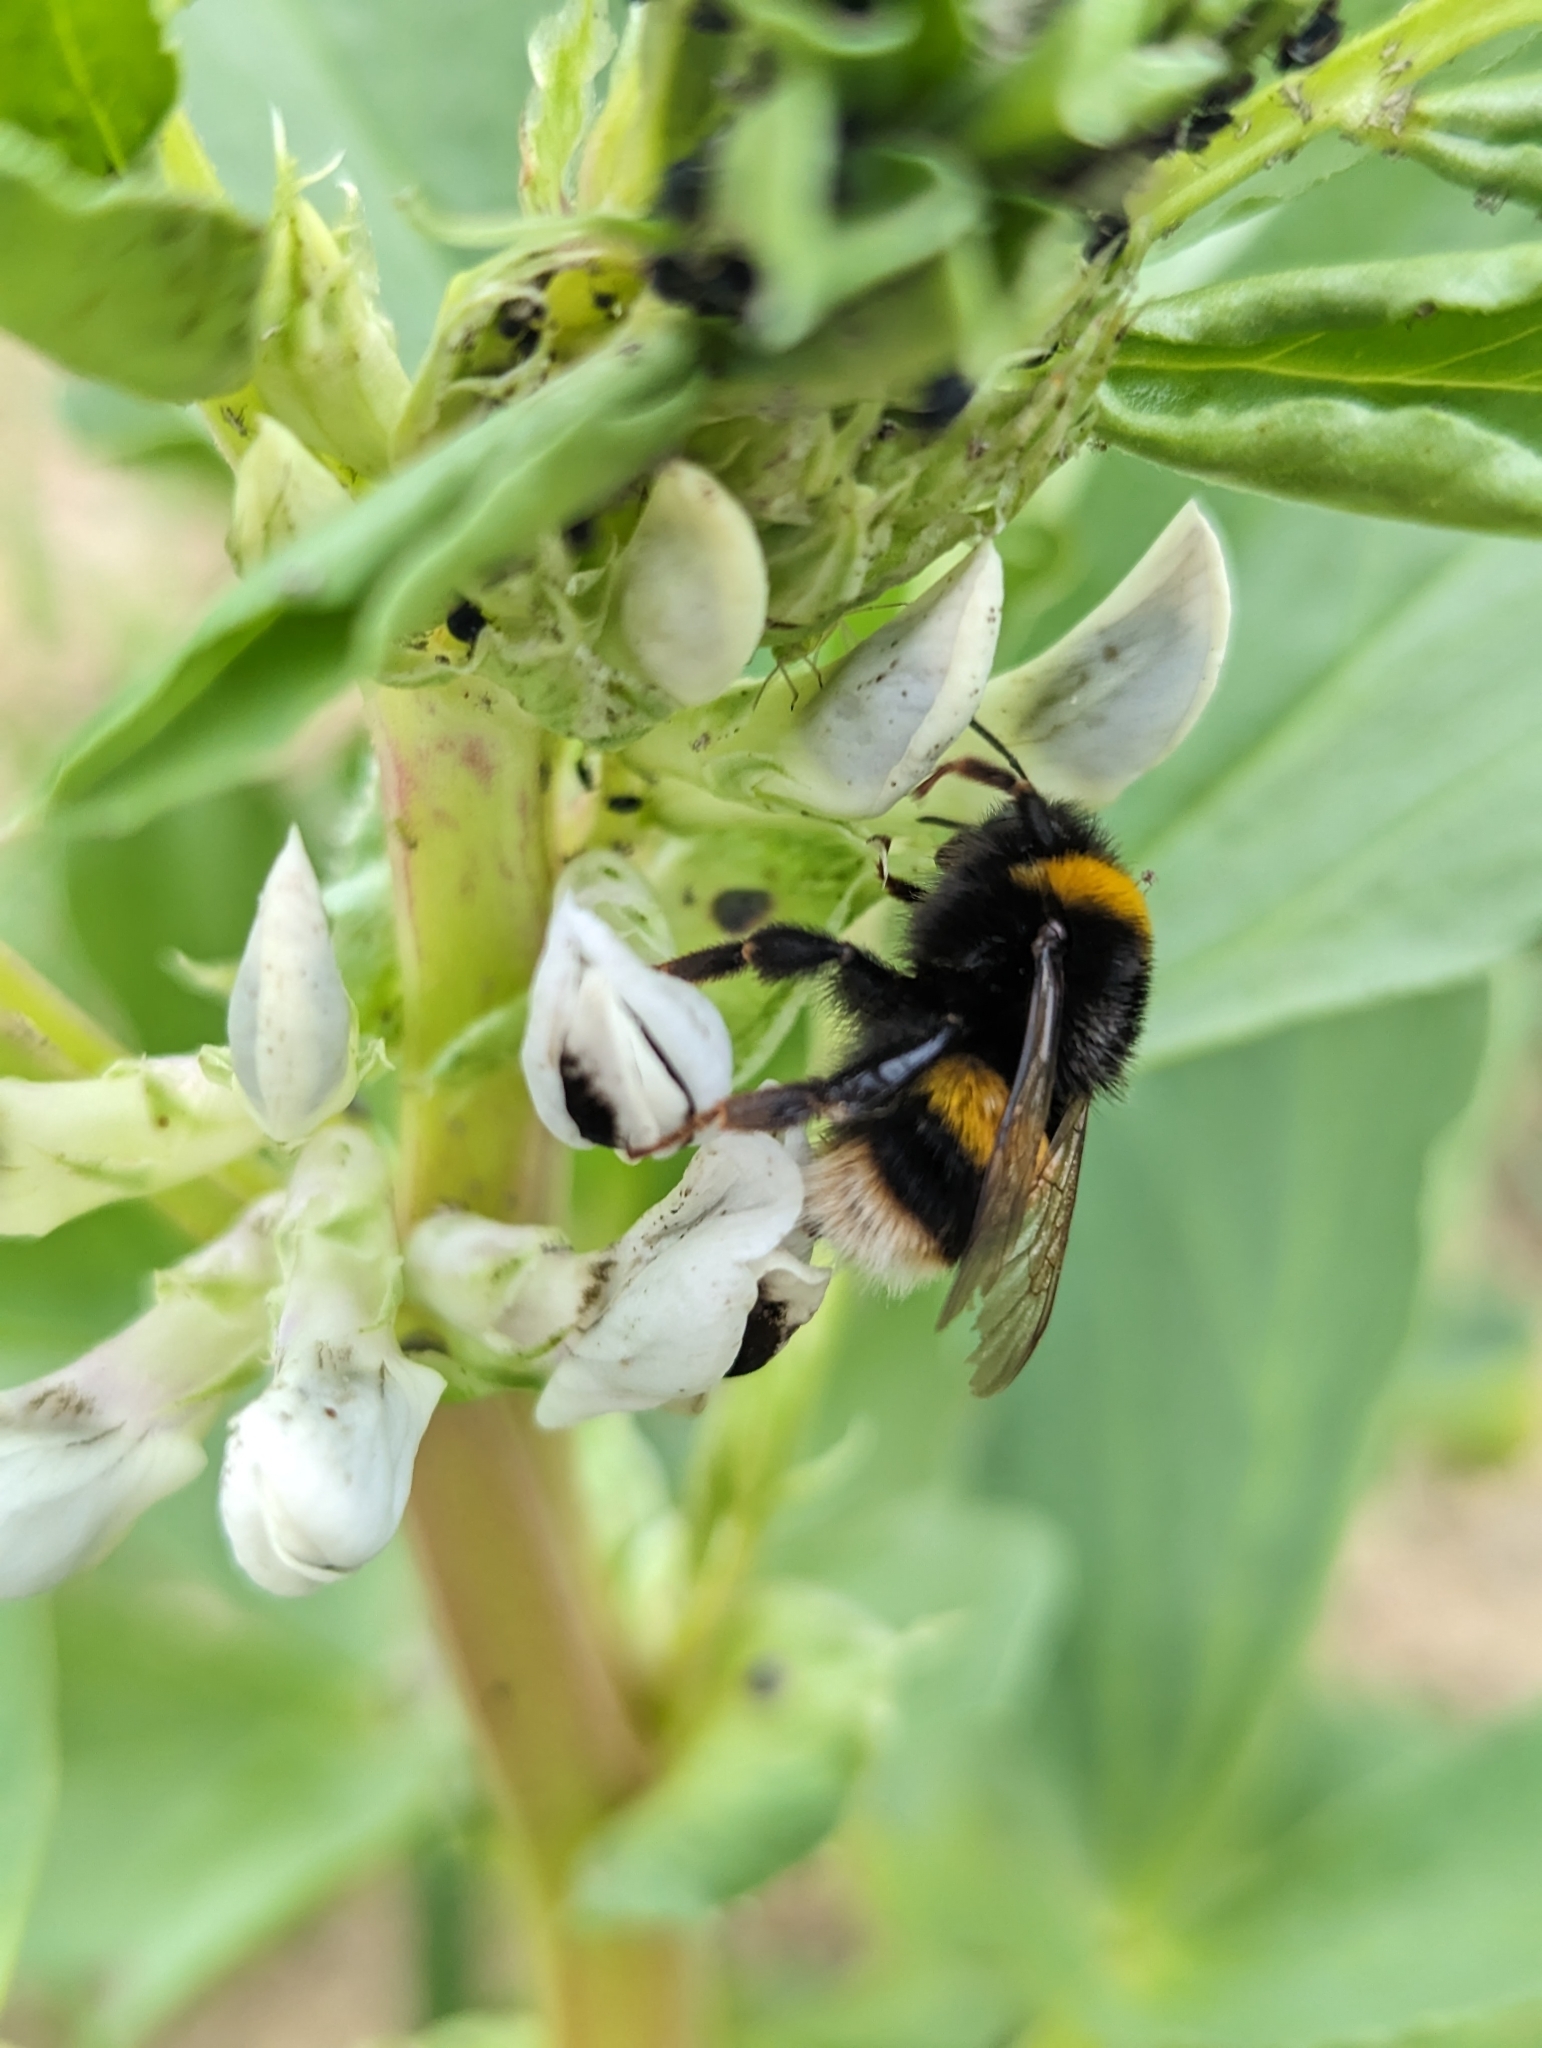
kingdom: Animalia
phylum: Arthropoda
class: Insecta
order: Hymenoptera
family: Apidae
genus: Bombus
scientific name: Bombus terrestris
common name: Buff-tailed bumblebee
